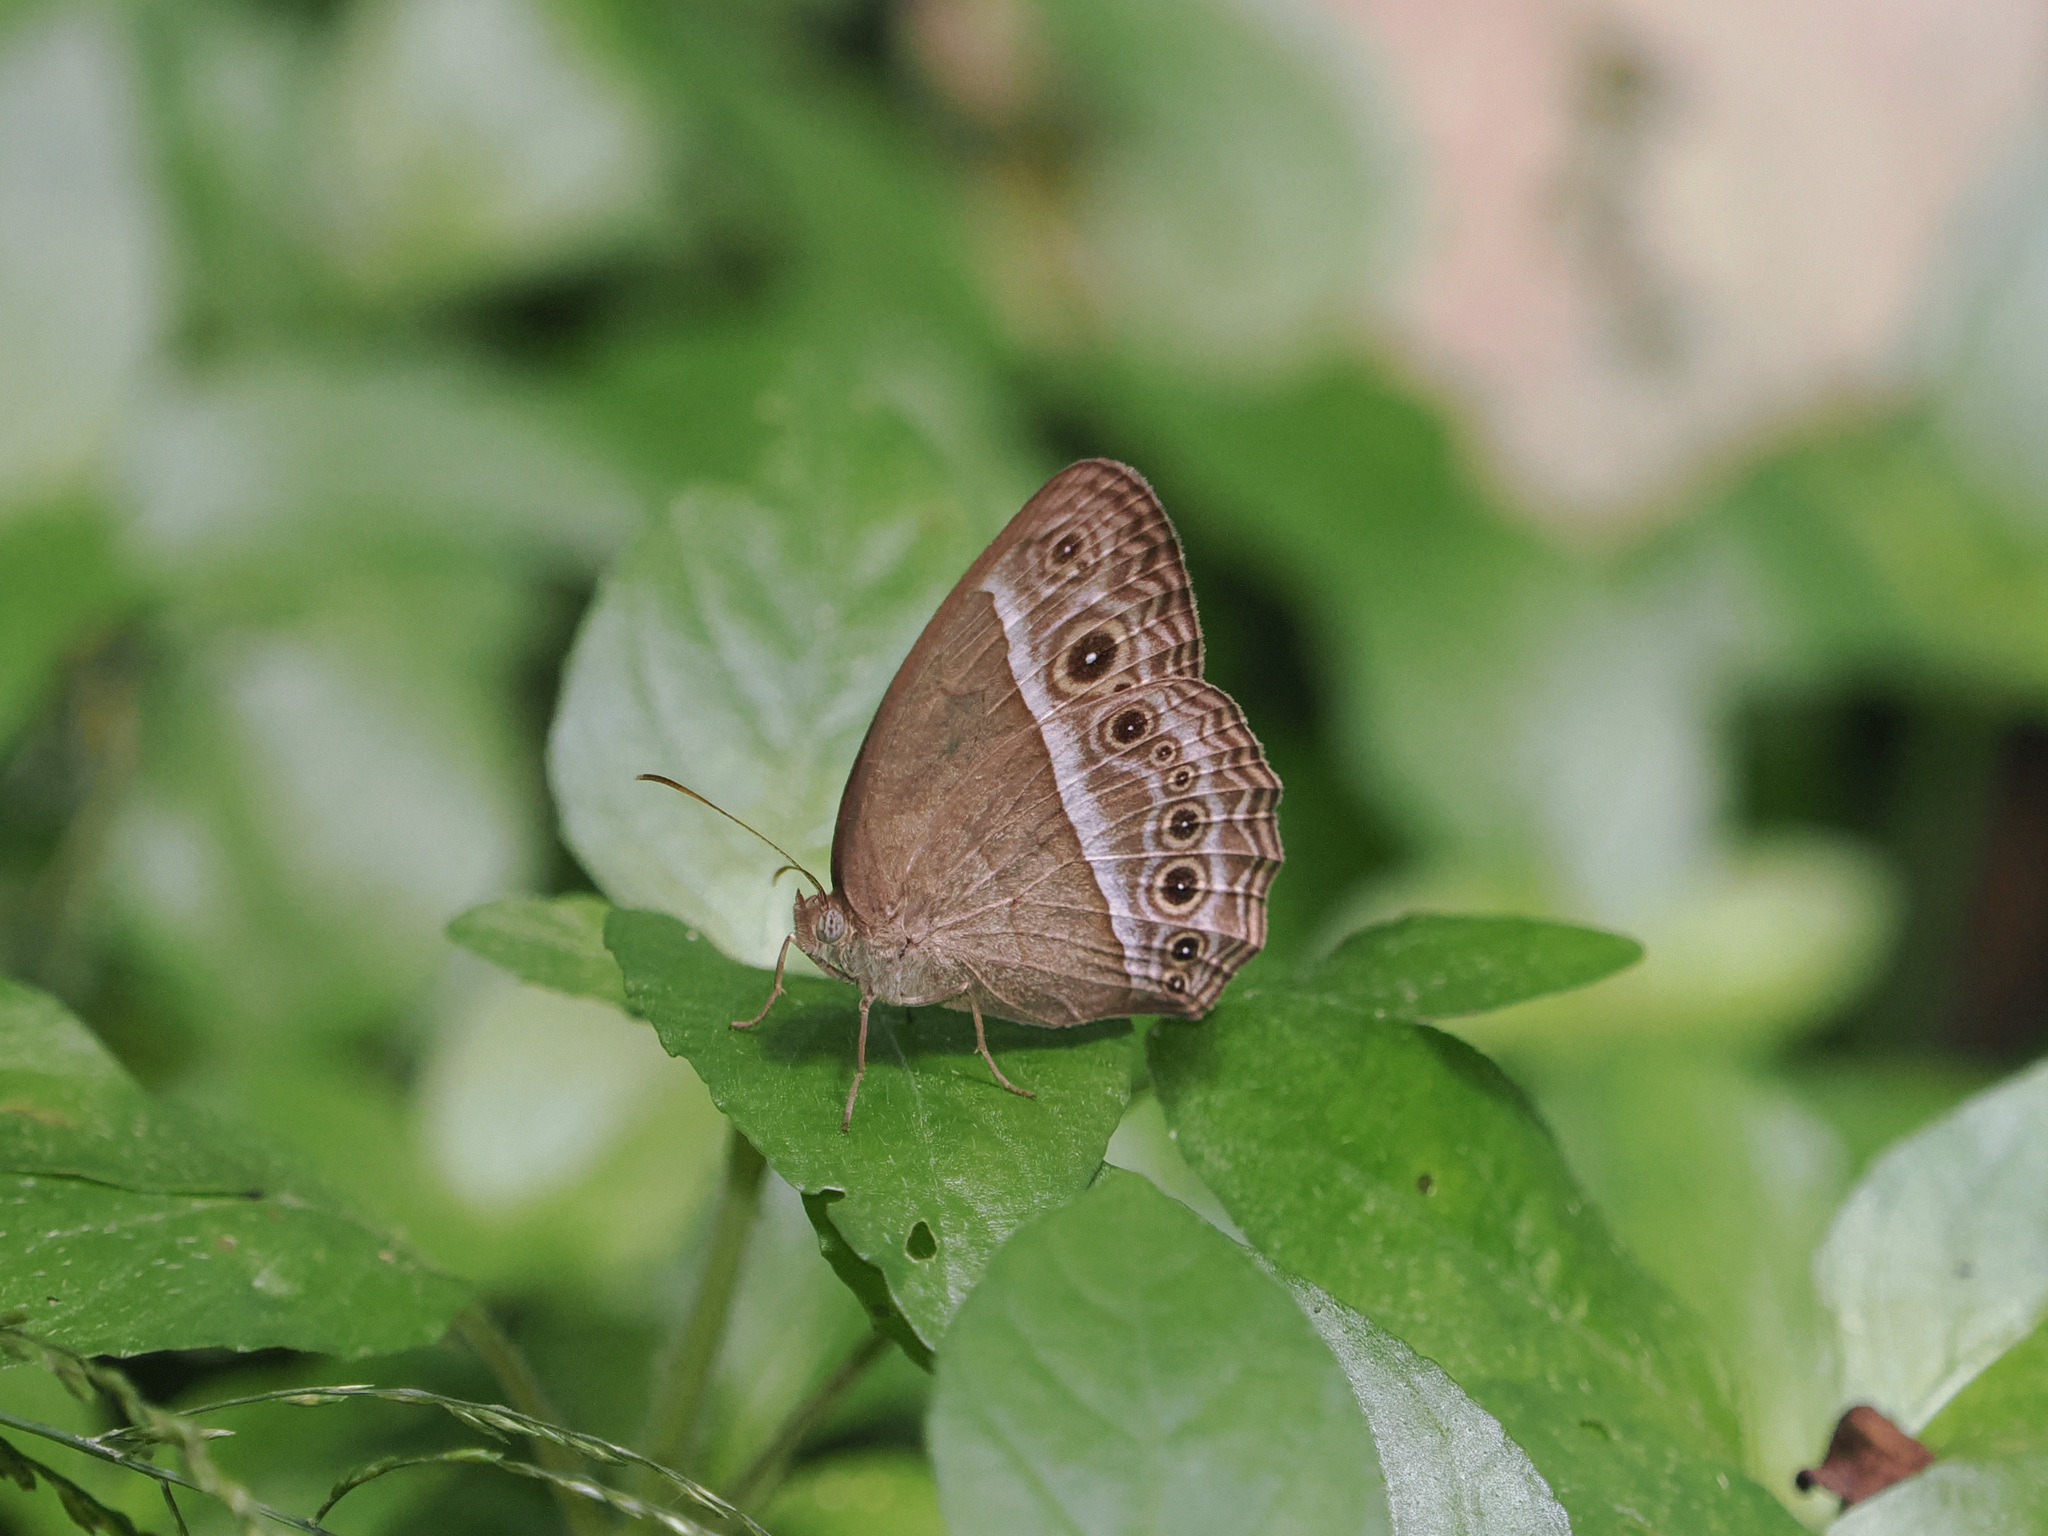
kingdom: Animalia
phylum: Arthropoda
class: Insecta
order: Lepidoptera
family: Nymphalidae
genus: Mycalesis
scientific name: Mycalesis visala
